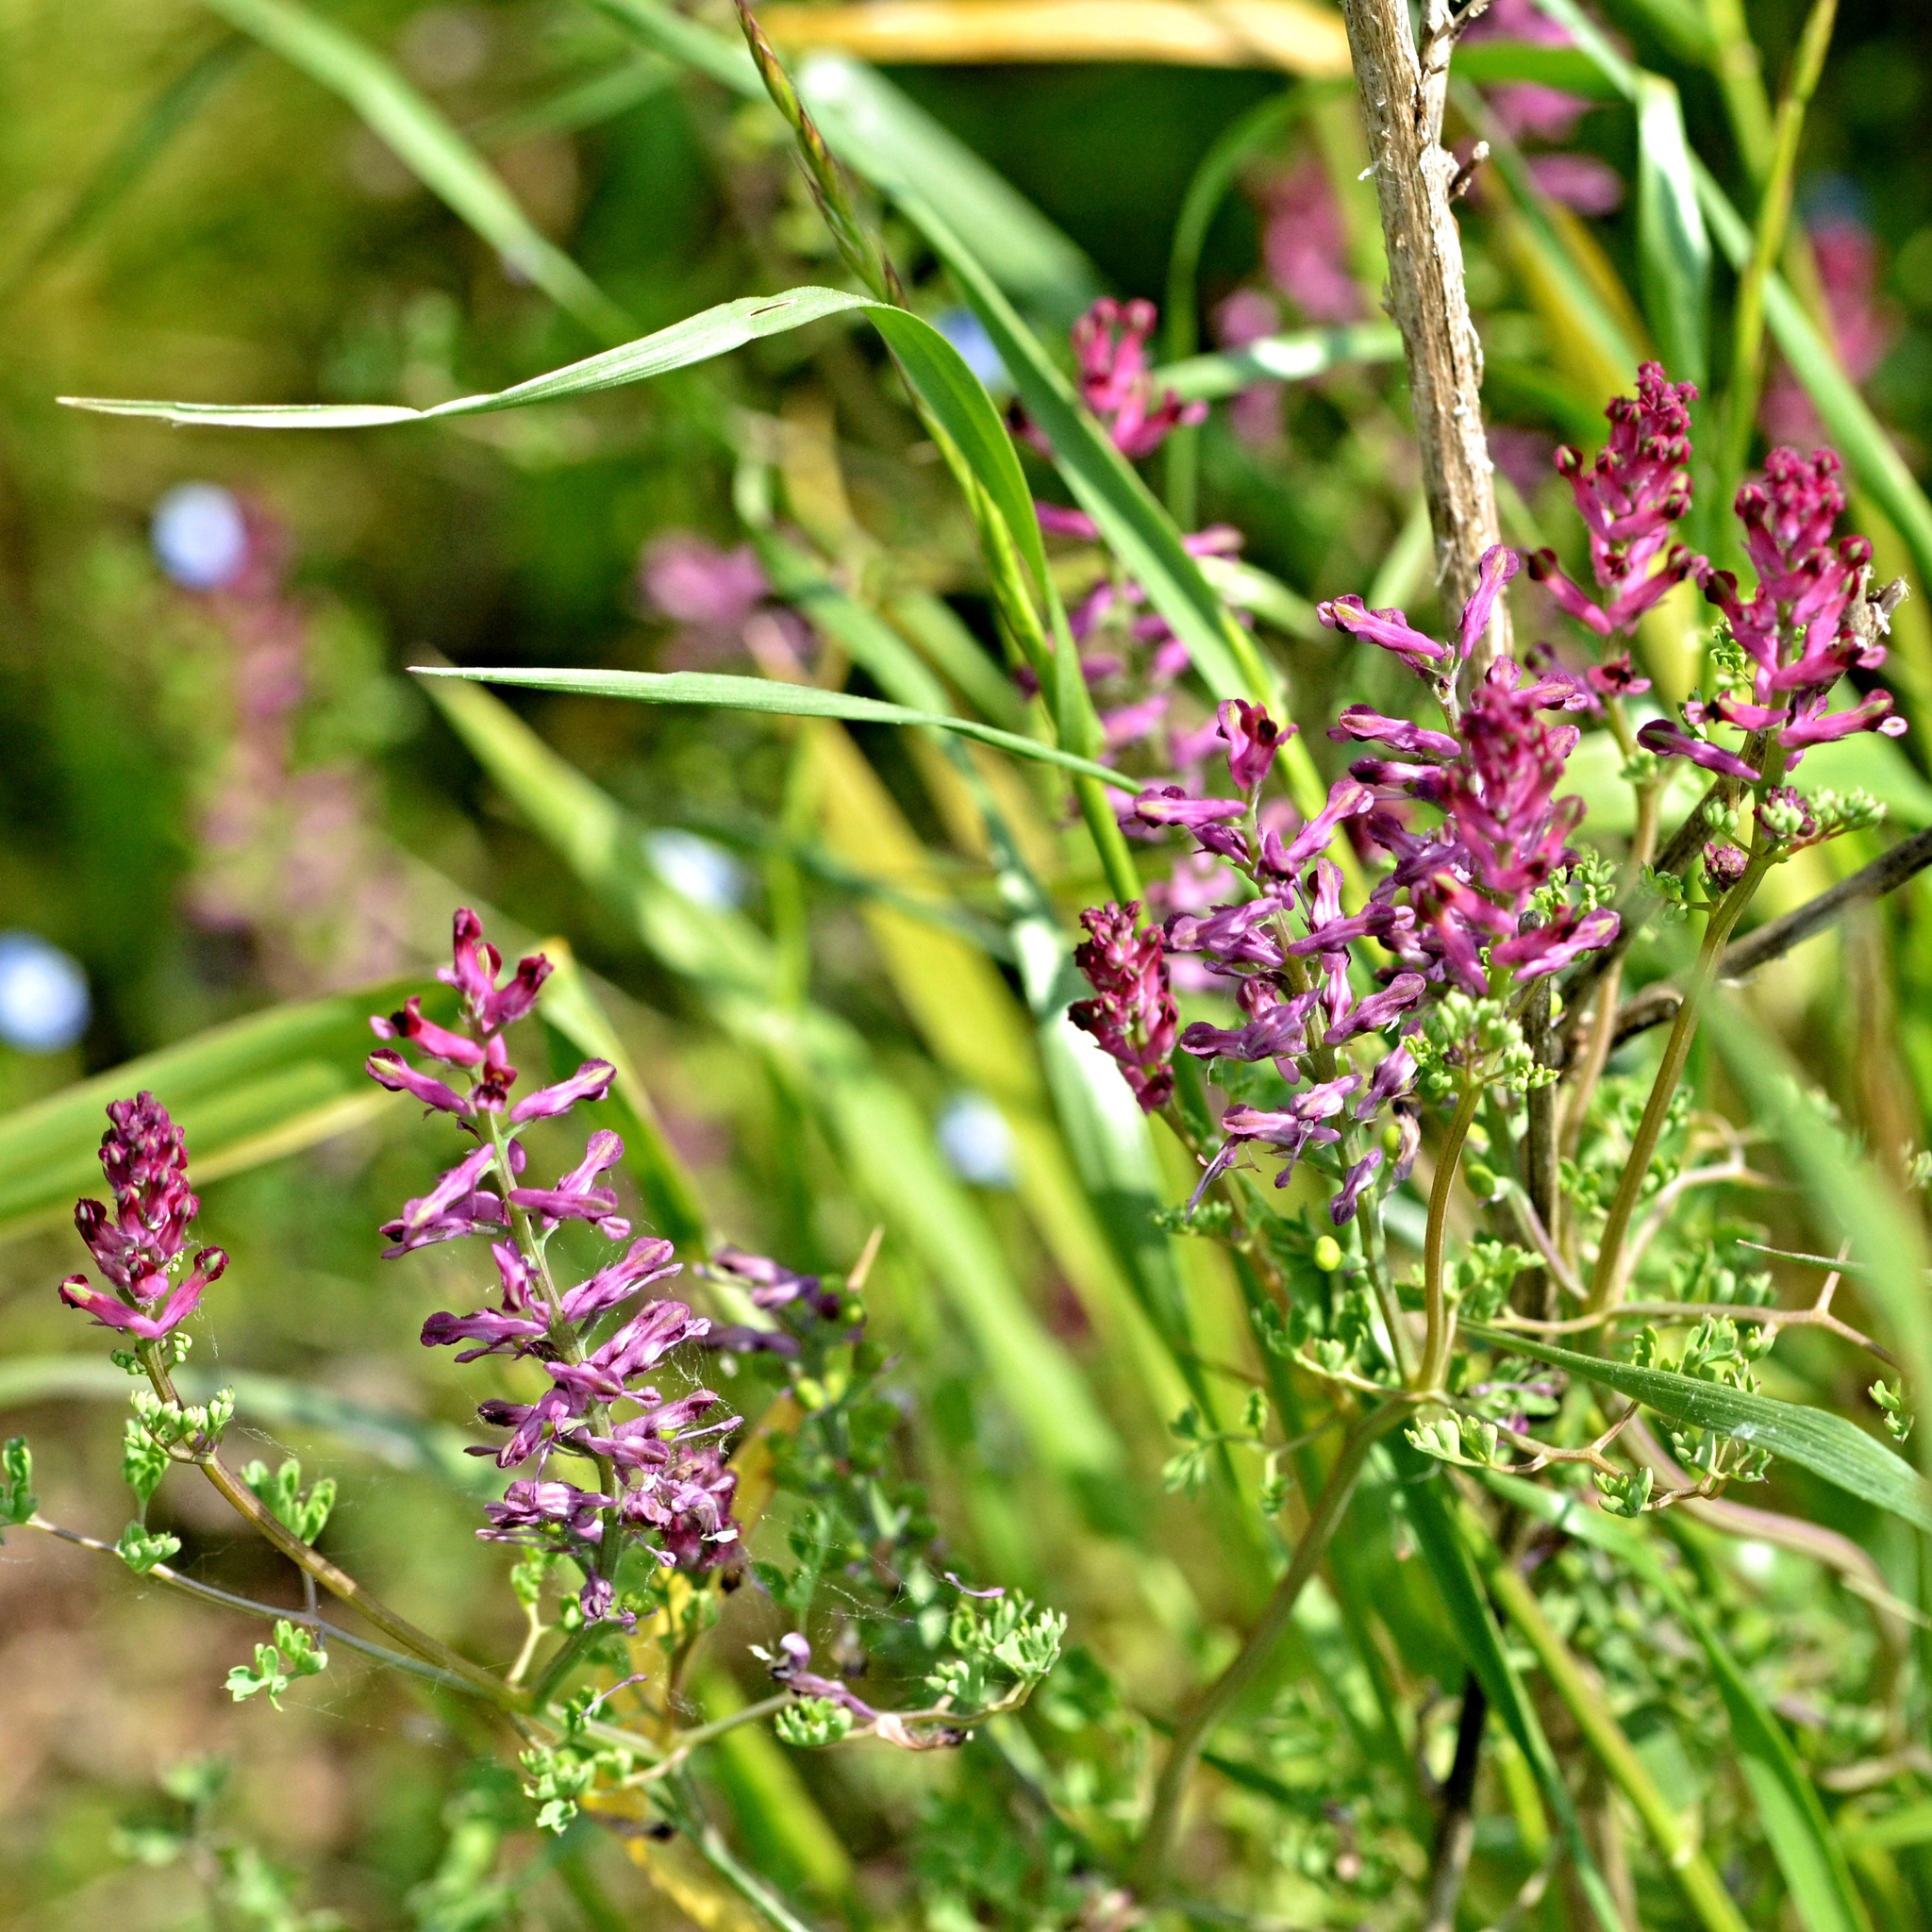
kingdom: Plantae
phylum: Tracheophyta
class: Magnoliopsida
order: Ranunculales
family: Papaveraceae
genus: Fumaria
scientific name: Fumaria officinalis
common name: Common fumitory
